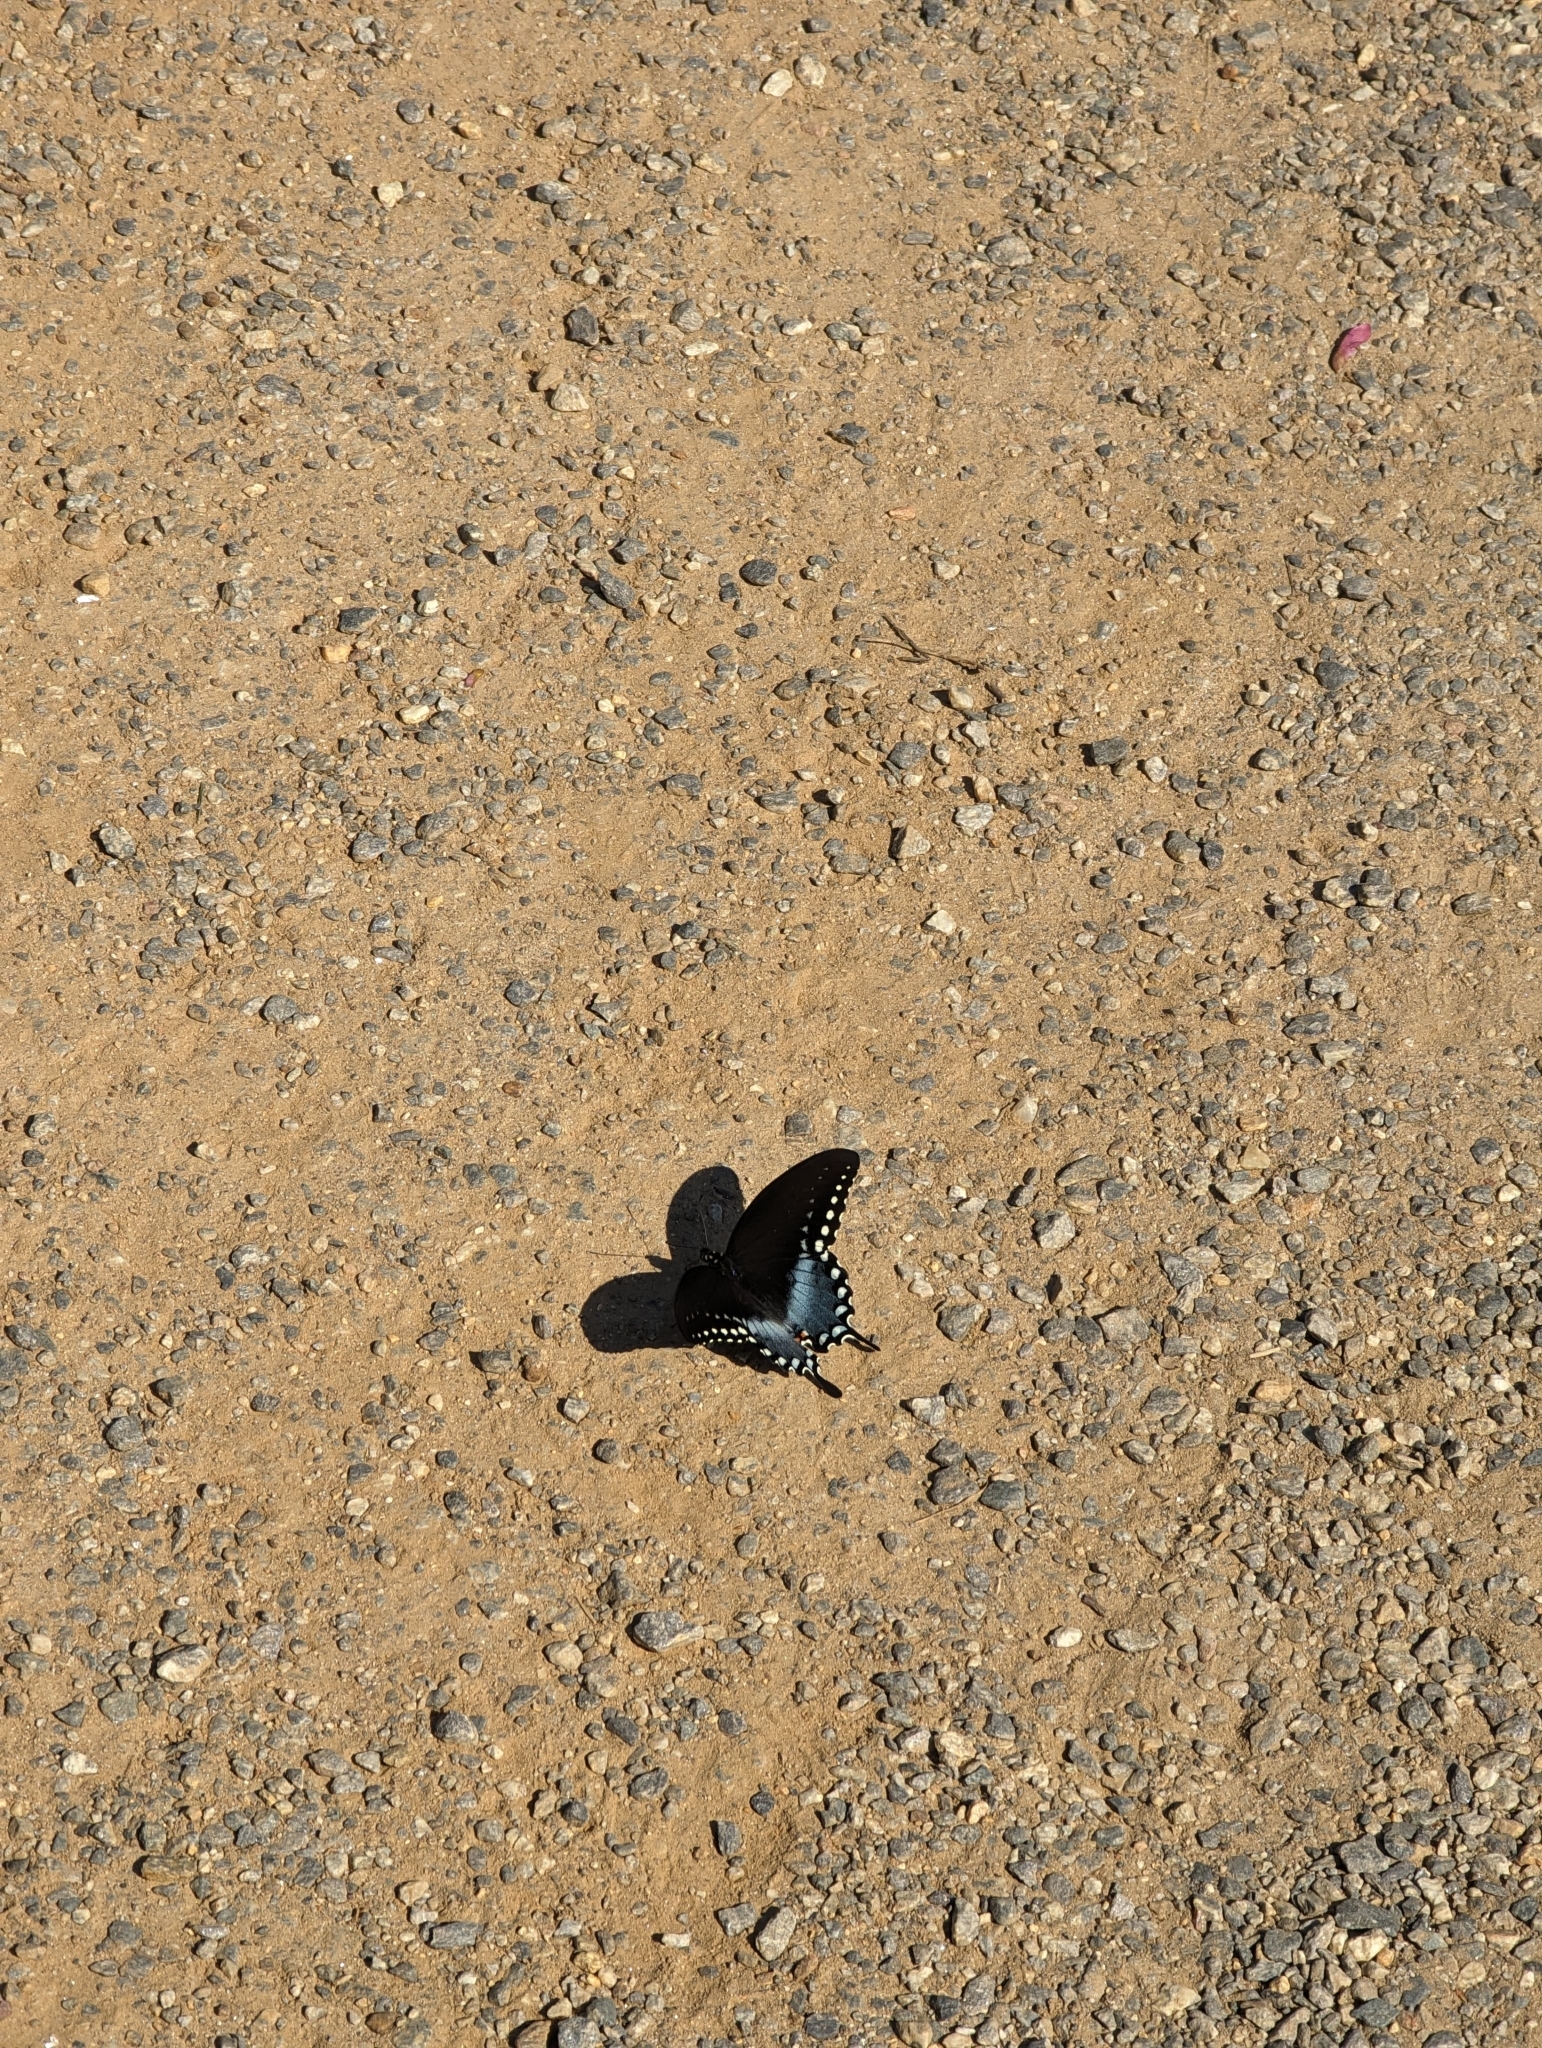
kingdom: Animalia
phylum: Arthropoda
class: Insecta
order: Lepidoptera
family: Papilionidae
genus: Papilio
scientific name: Papilio troilus
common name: Spicebush swallowtail
